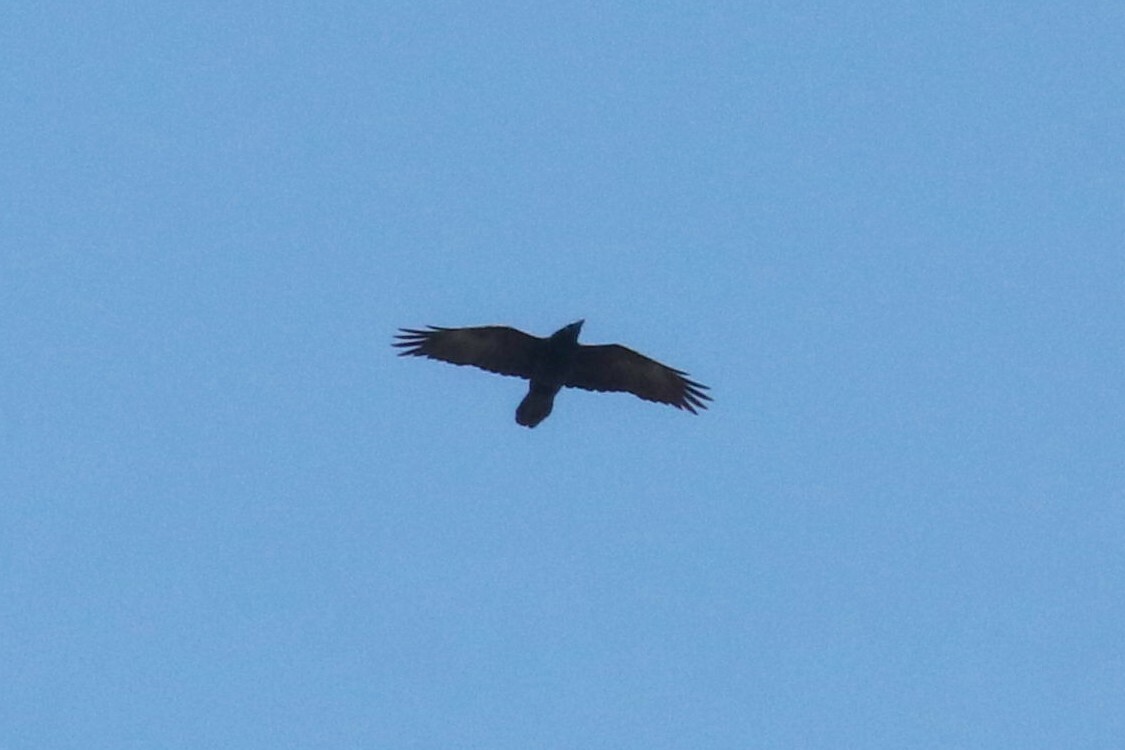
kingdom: Animalia
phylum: Chordata
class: Aves
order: Passeriformes
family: Corvidae
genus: Corvus
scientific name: Corvus corax
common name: Common raven
